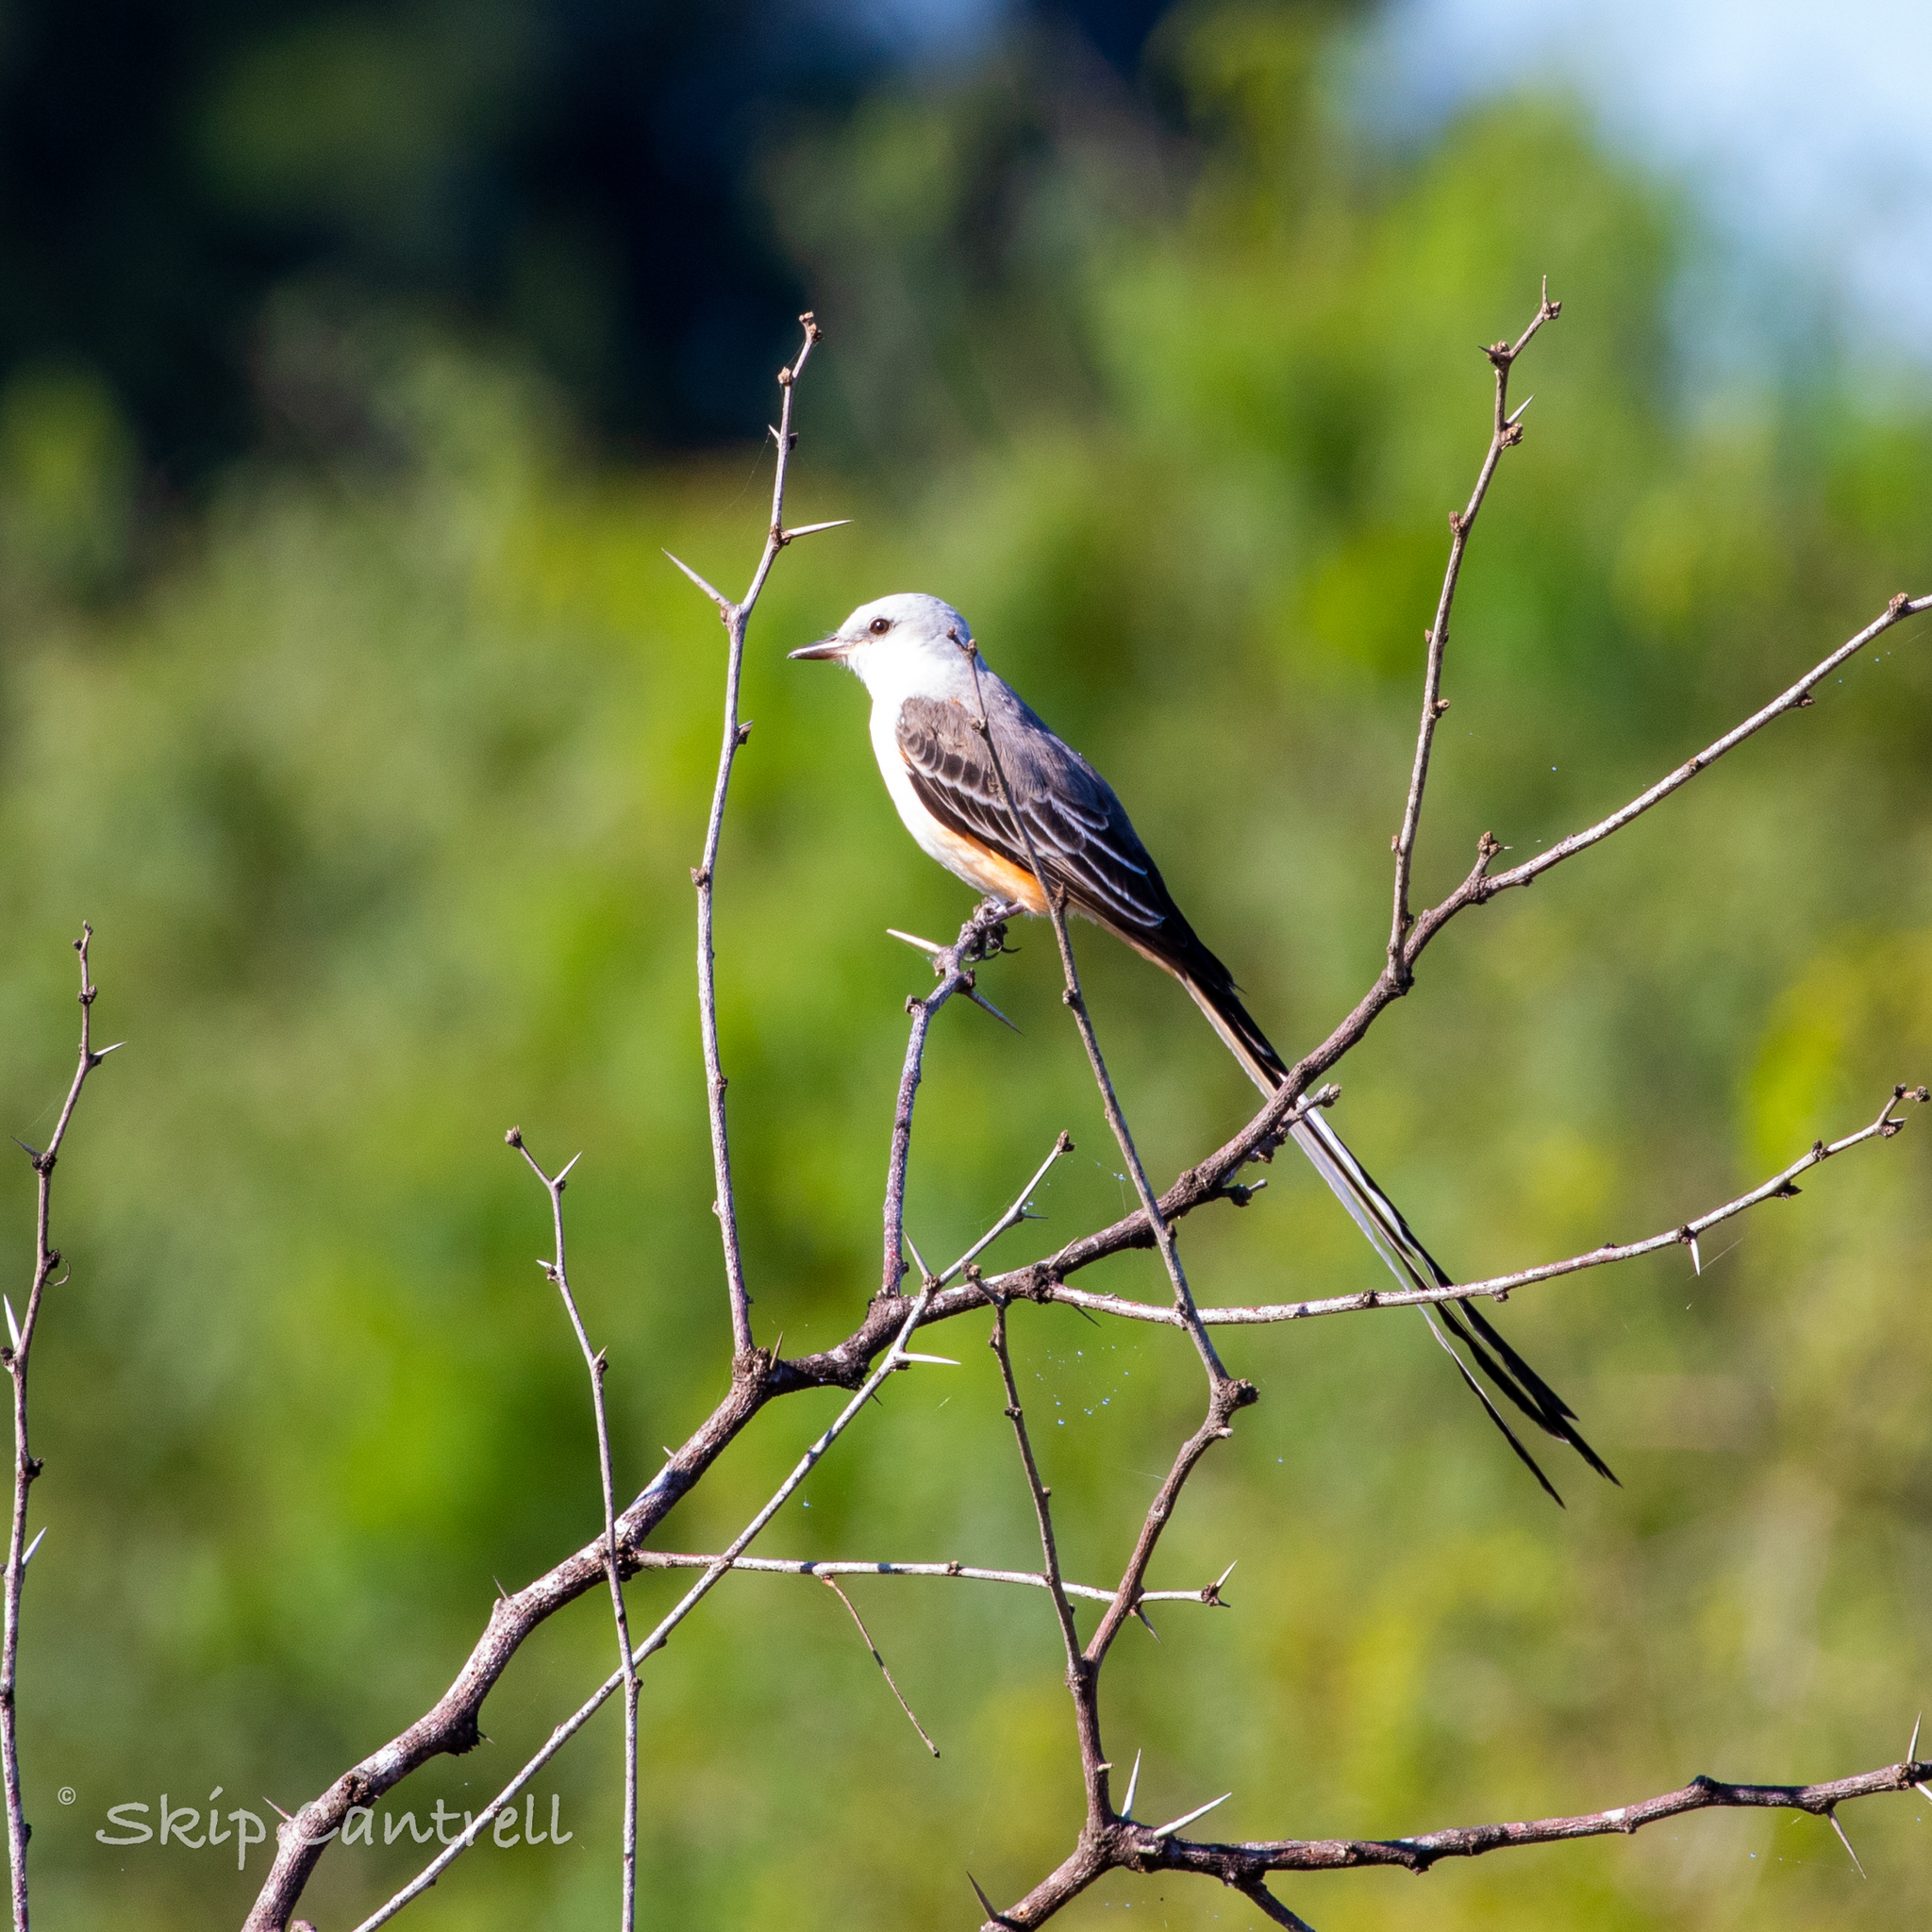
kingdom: Animalia
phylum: Chordata
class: Aves
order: Passeriformes
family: Tyrannidae
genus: Tyrannus
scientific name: Tyrannus forficatus
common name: Scissor-tailed flycatcher
